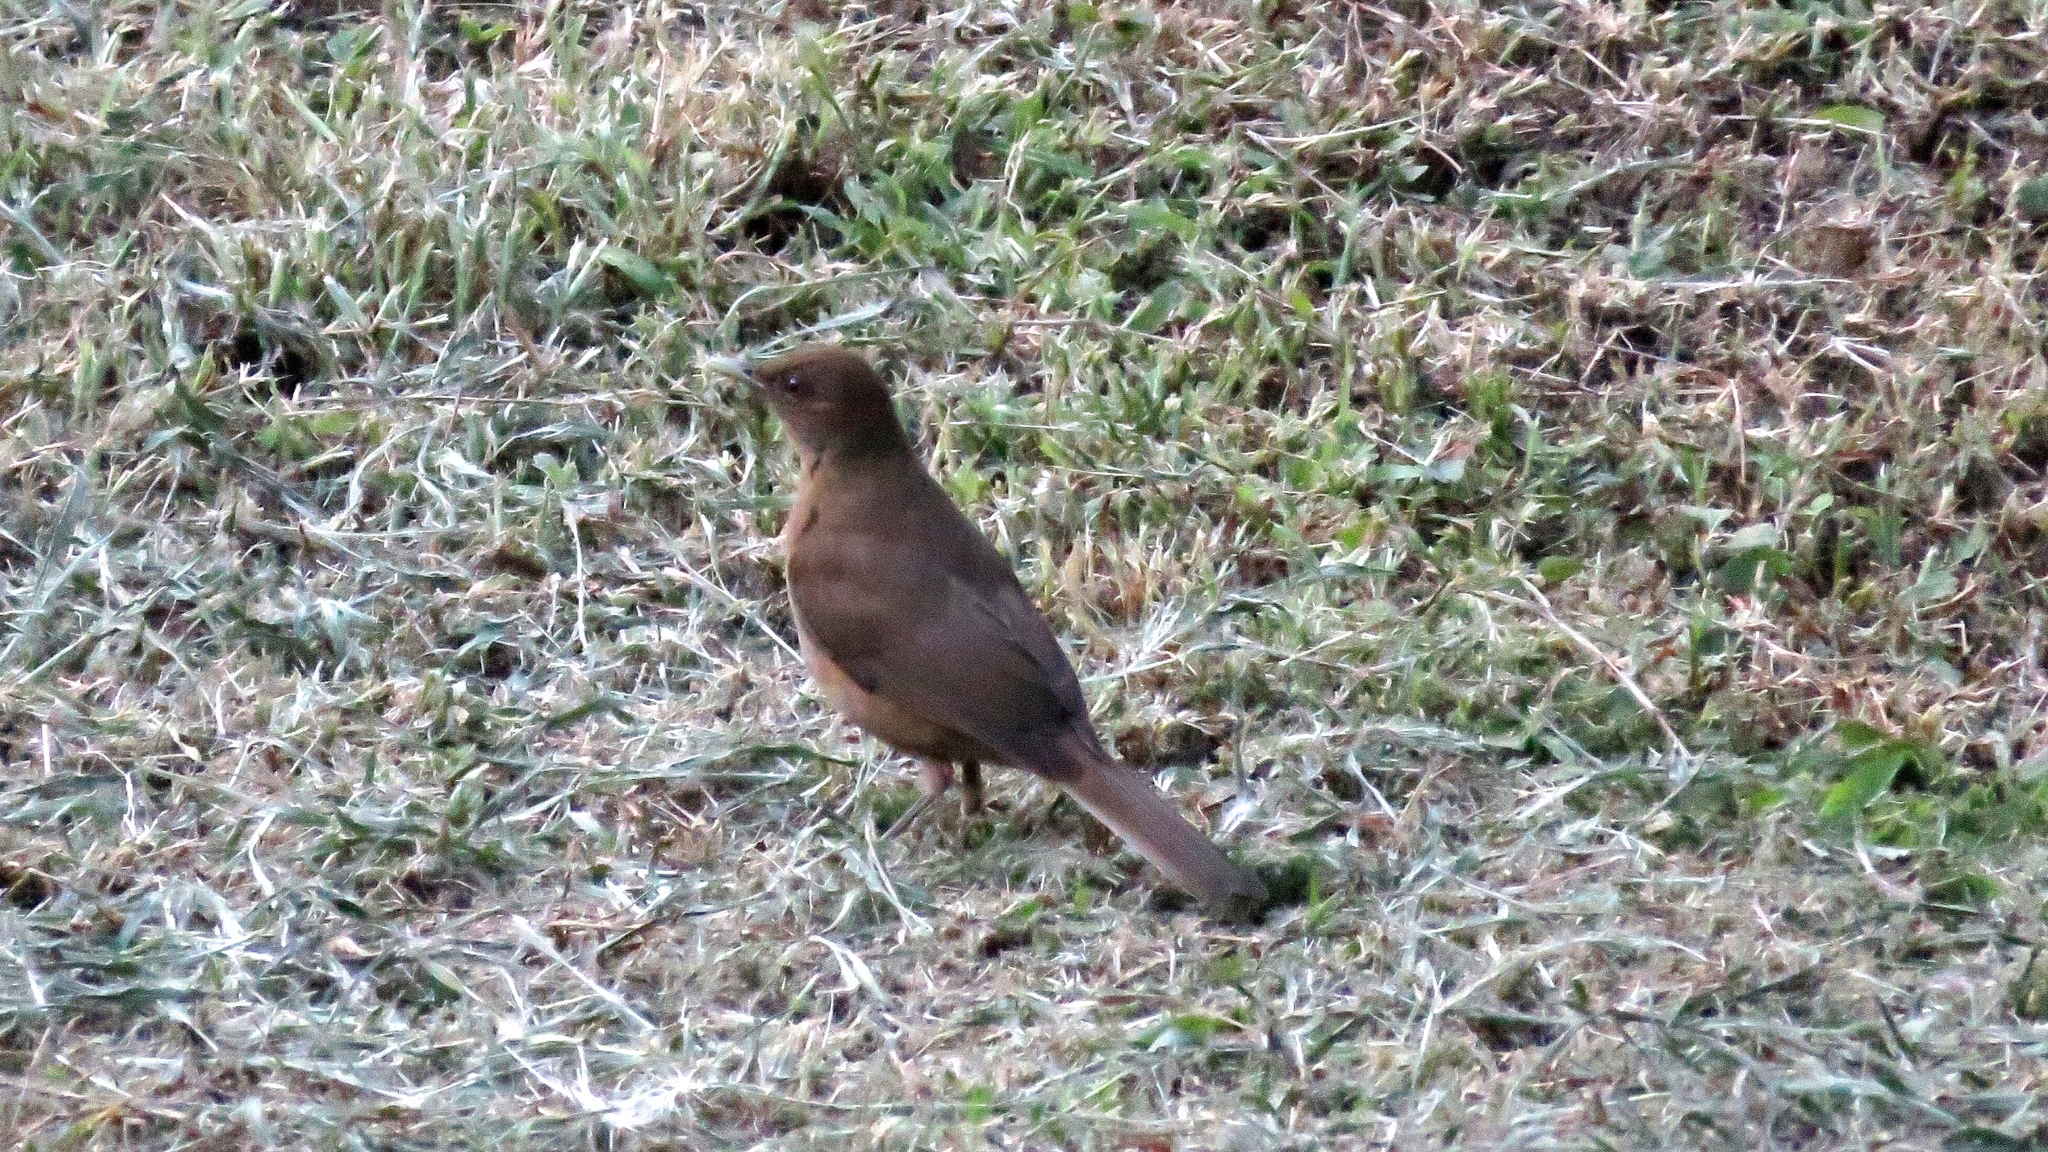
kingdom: Animalia
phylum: Chordata
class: Aves
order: Passeriformes
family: Turdidae
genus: Turdus
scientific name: Turdus grayi
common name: Clay-colored thrush
